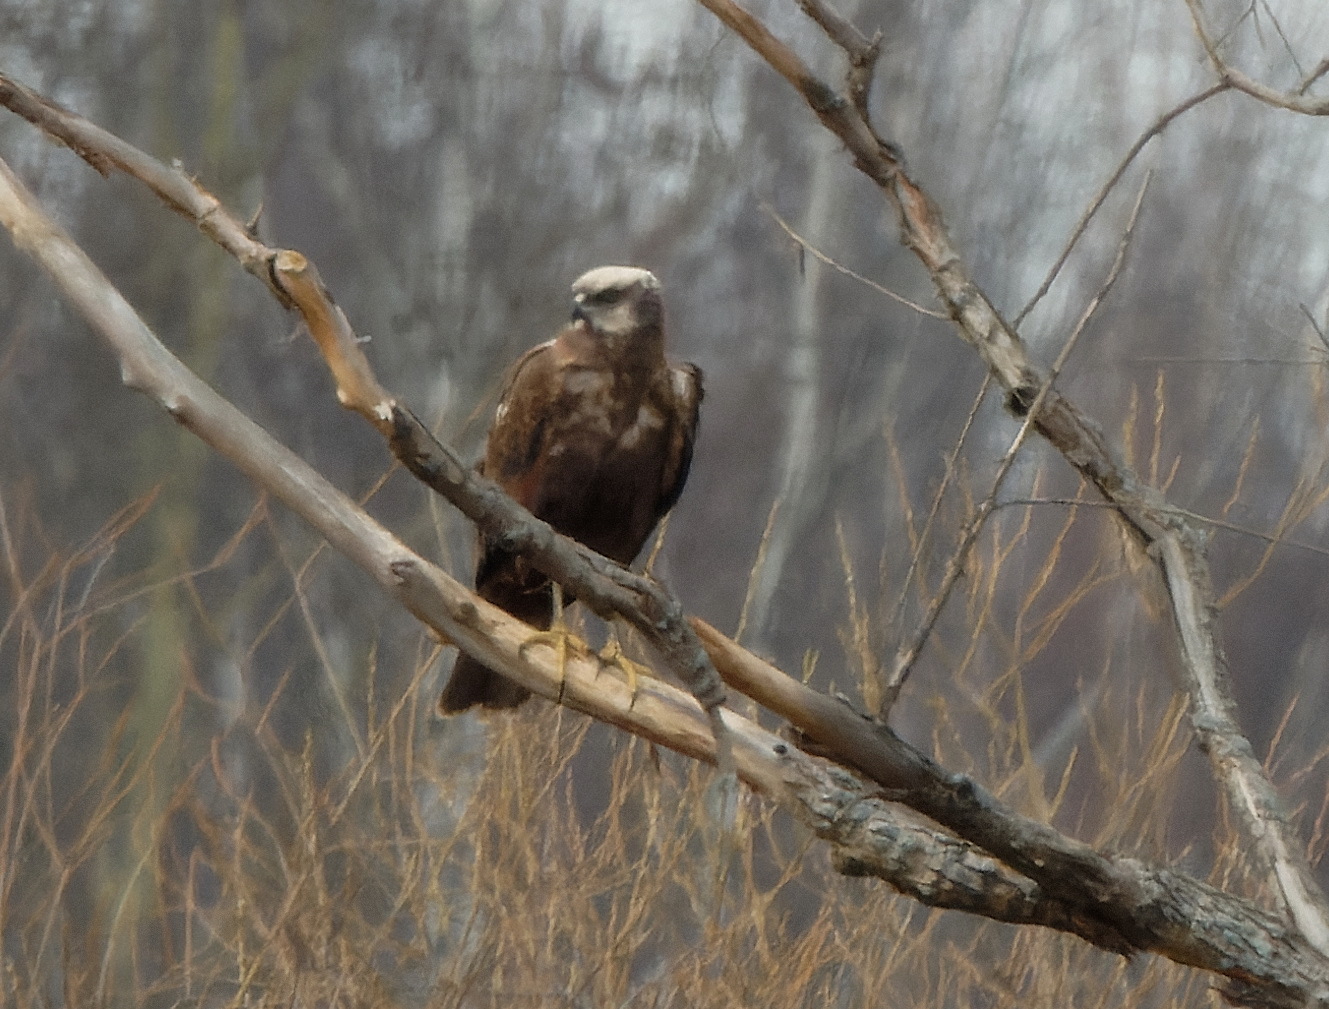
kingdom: Animalia
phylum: Chordata
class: Aves
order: Accipitriformes
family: Accipitridae
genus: Circus
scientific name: Circus aeruginosus
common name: Western marsh harrier
